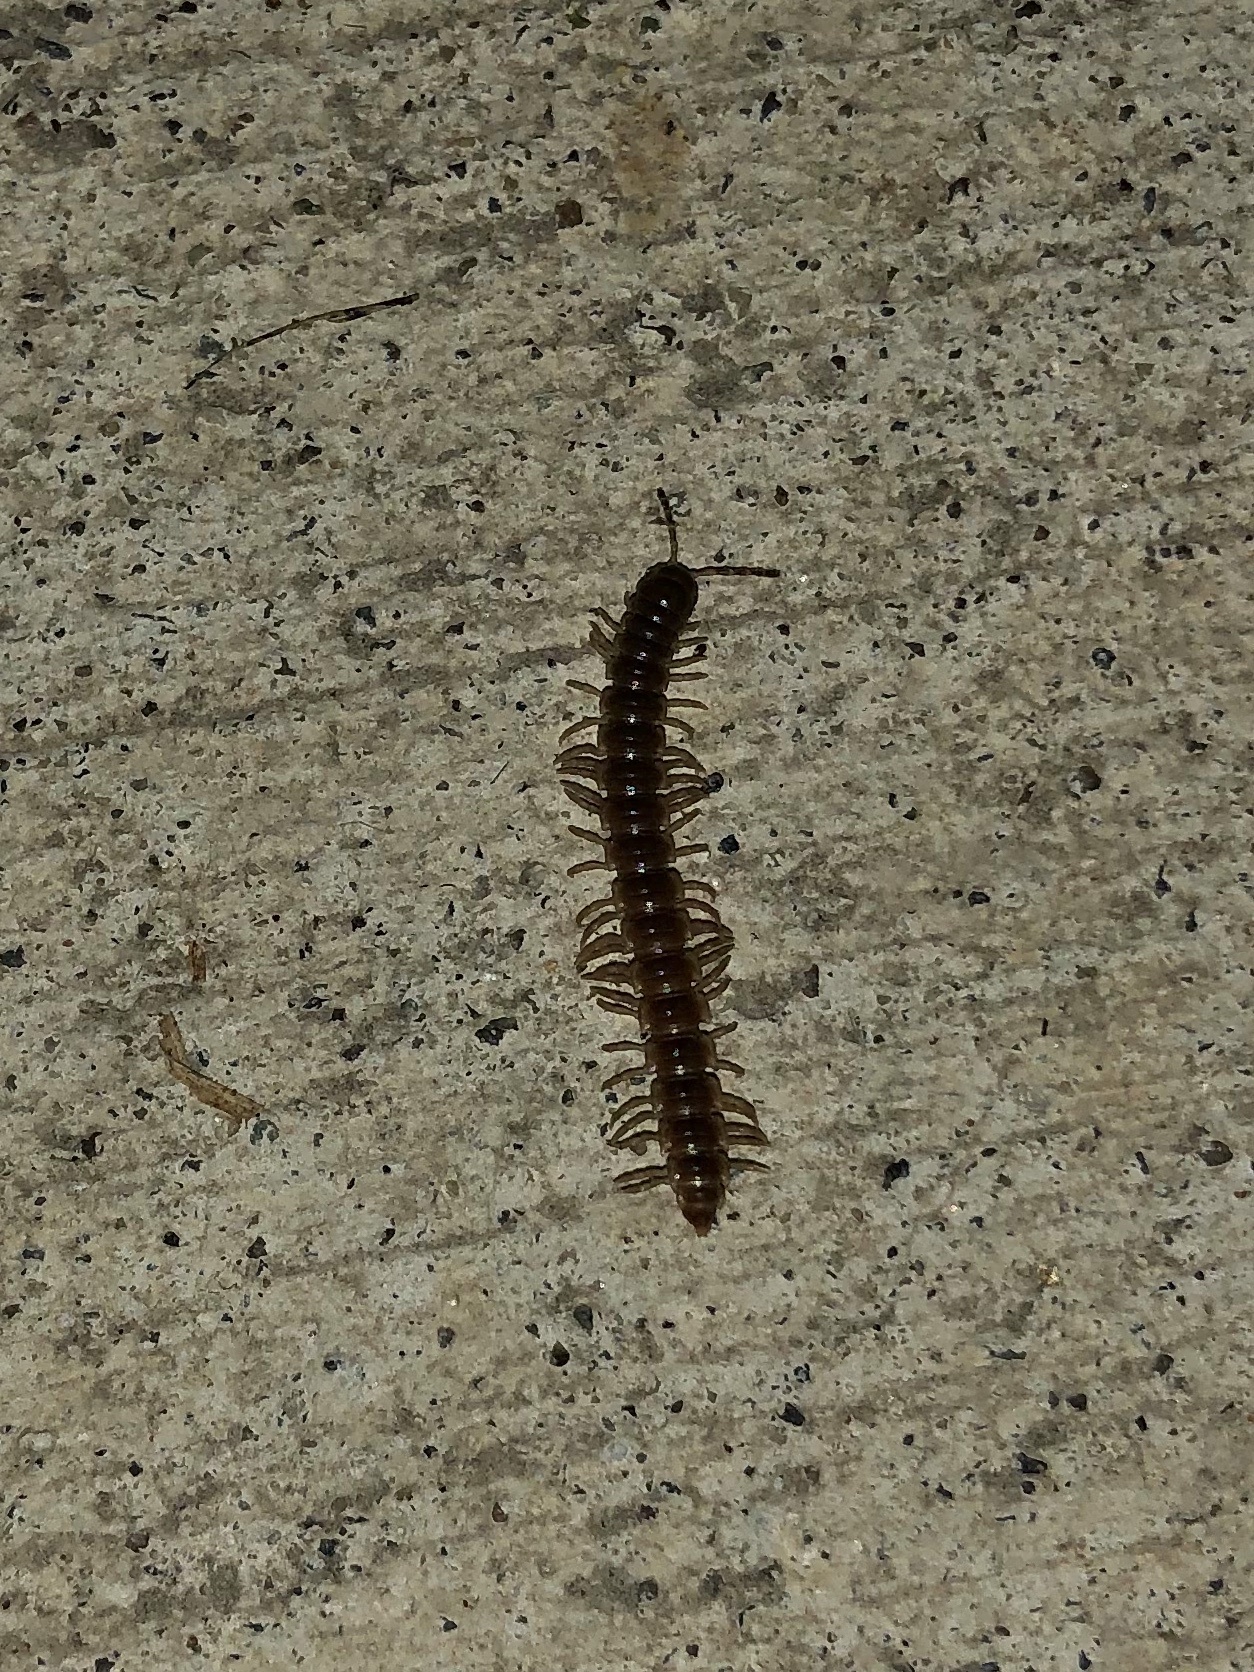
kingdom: Animalia
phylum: Arthropoda
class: Diplopoda
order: Polydesmida
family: Paradoxosomatidae
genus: Oxidus
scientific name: Oxidus gracilis
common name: Greenhouse millipede
